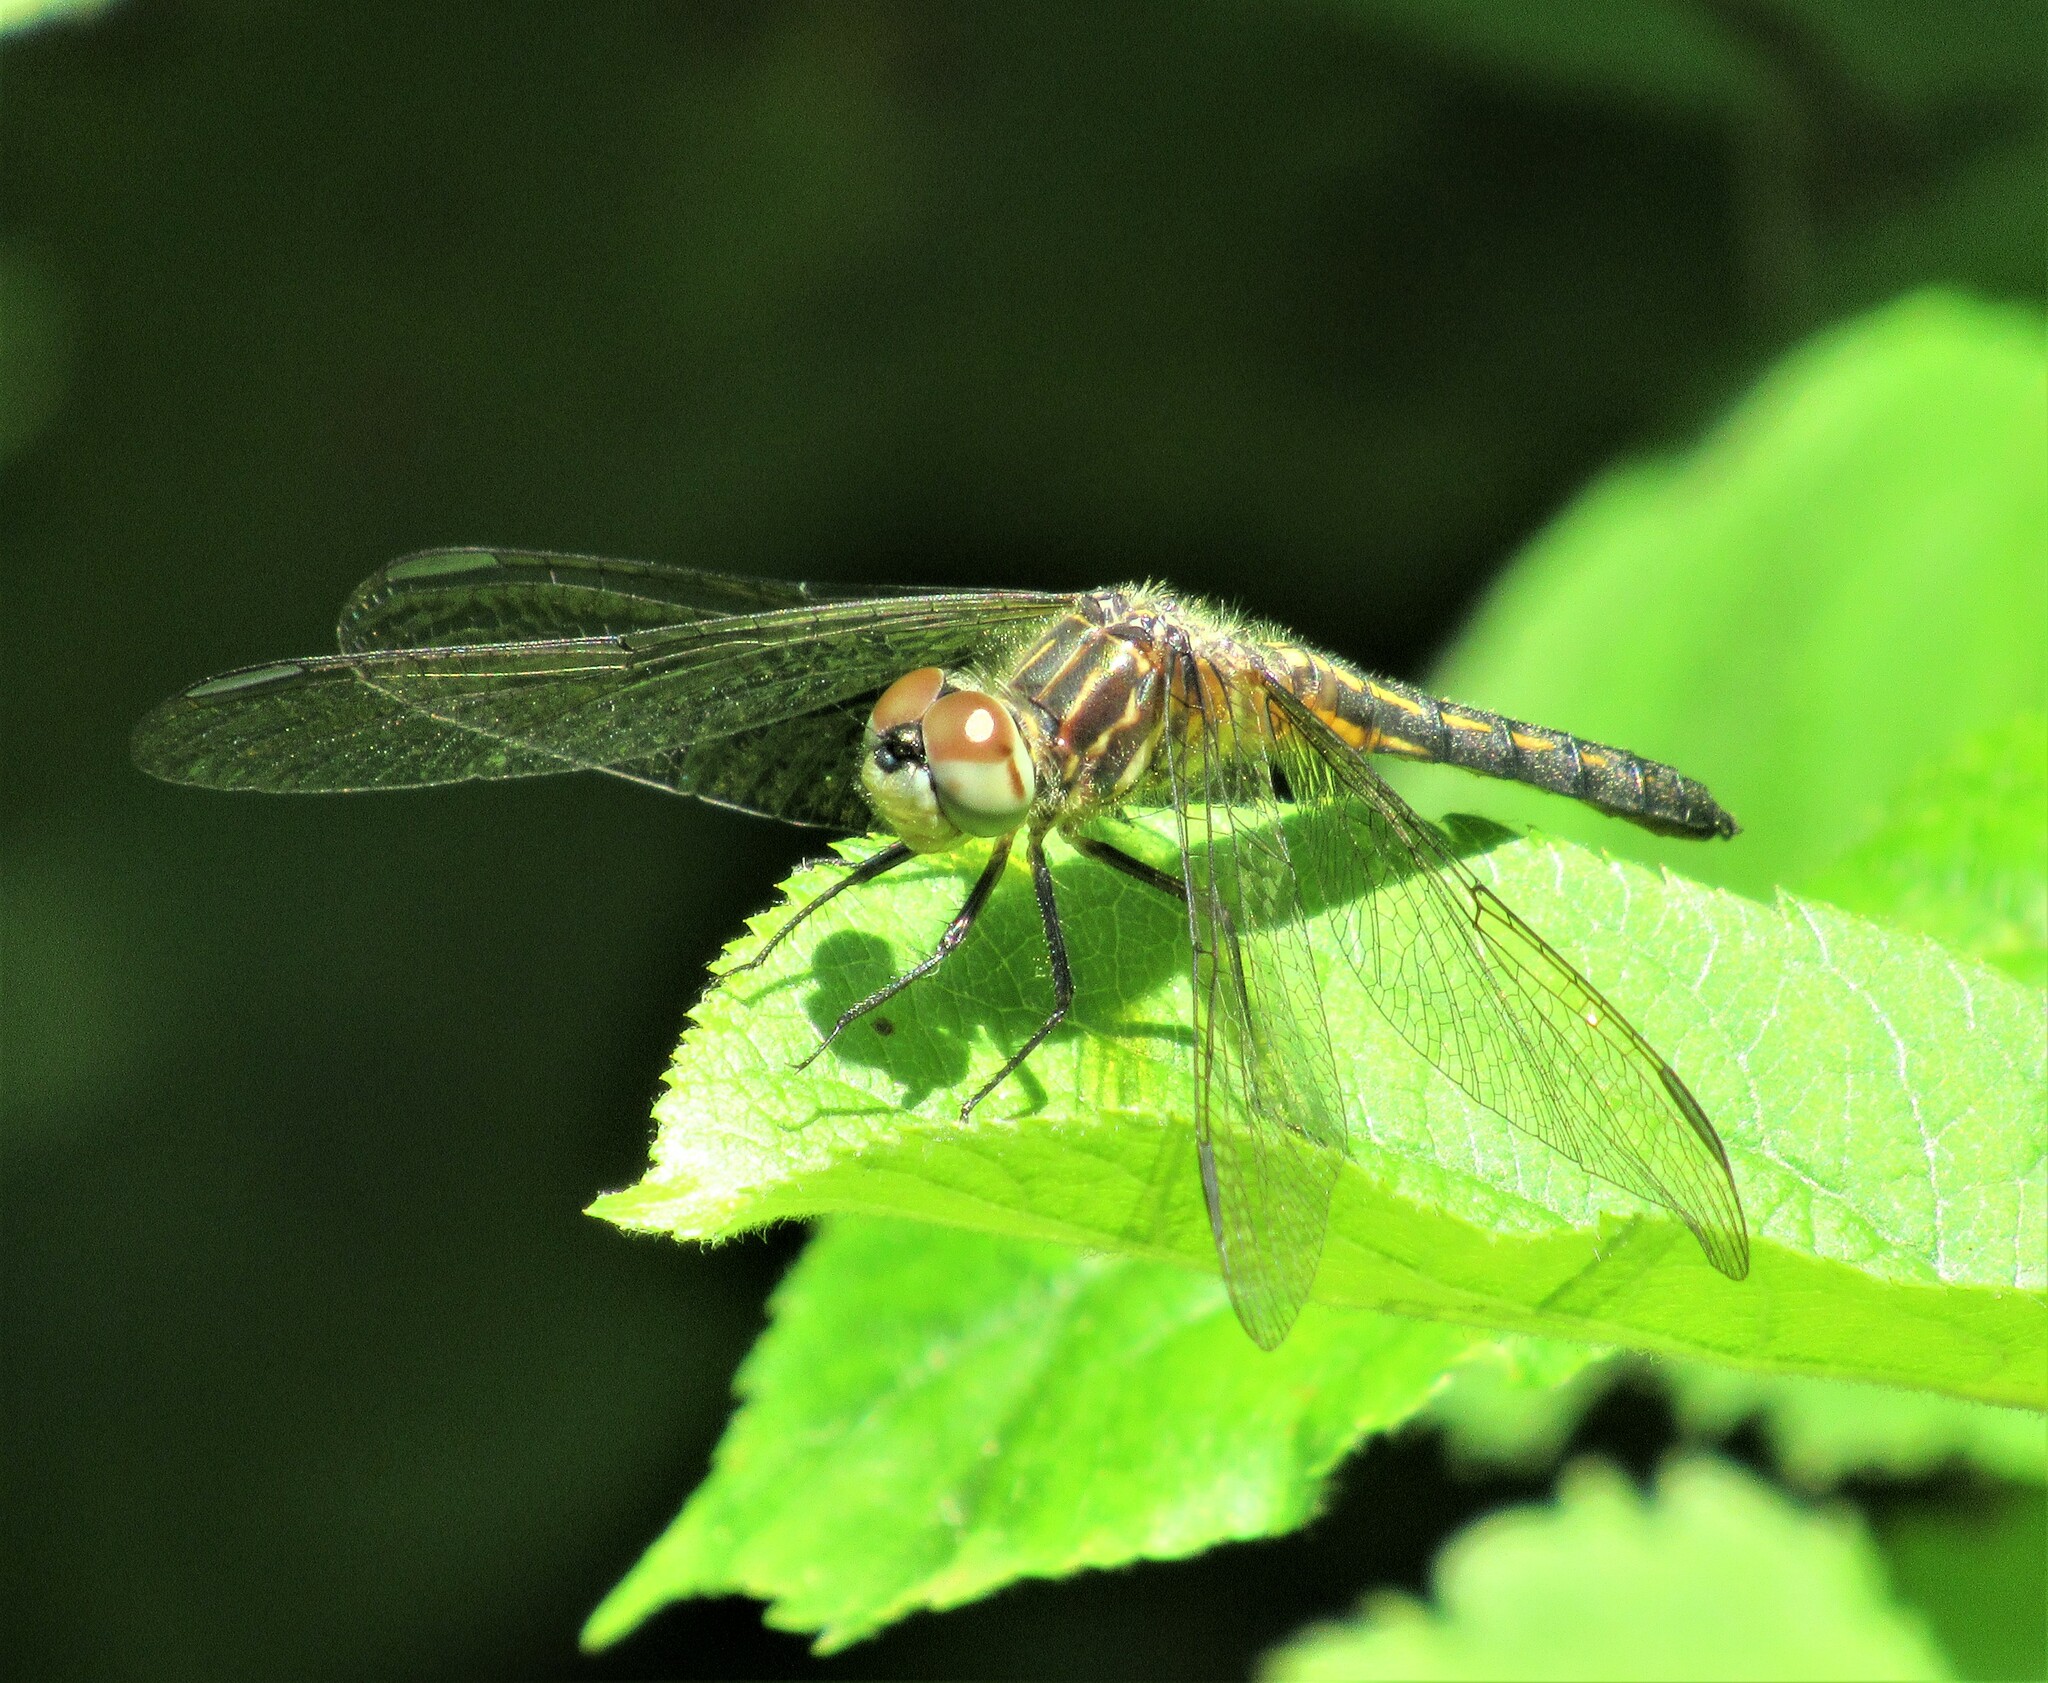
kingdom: Animalia
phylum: Arthropoda
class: Insecta
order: Odonata
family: Libellulidae
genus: Pachydiplax
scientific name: Pachydiplax longipennis
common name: Blue dasher
